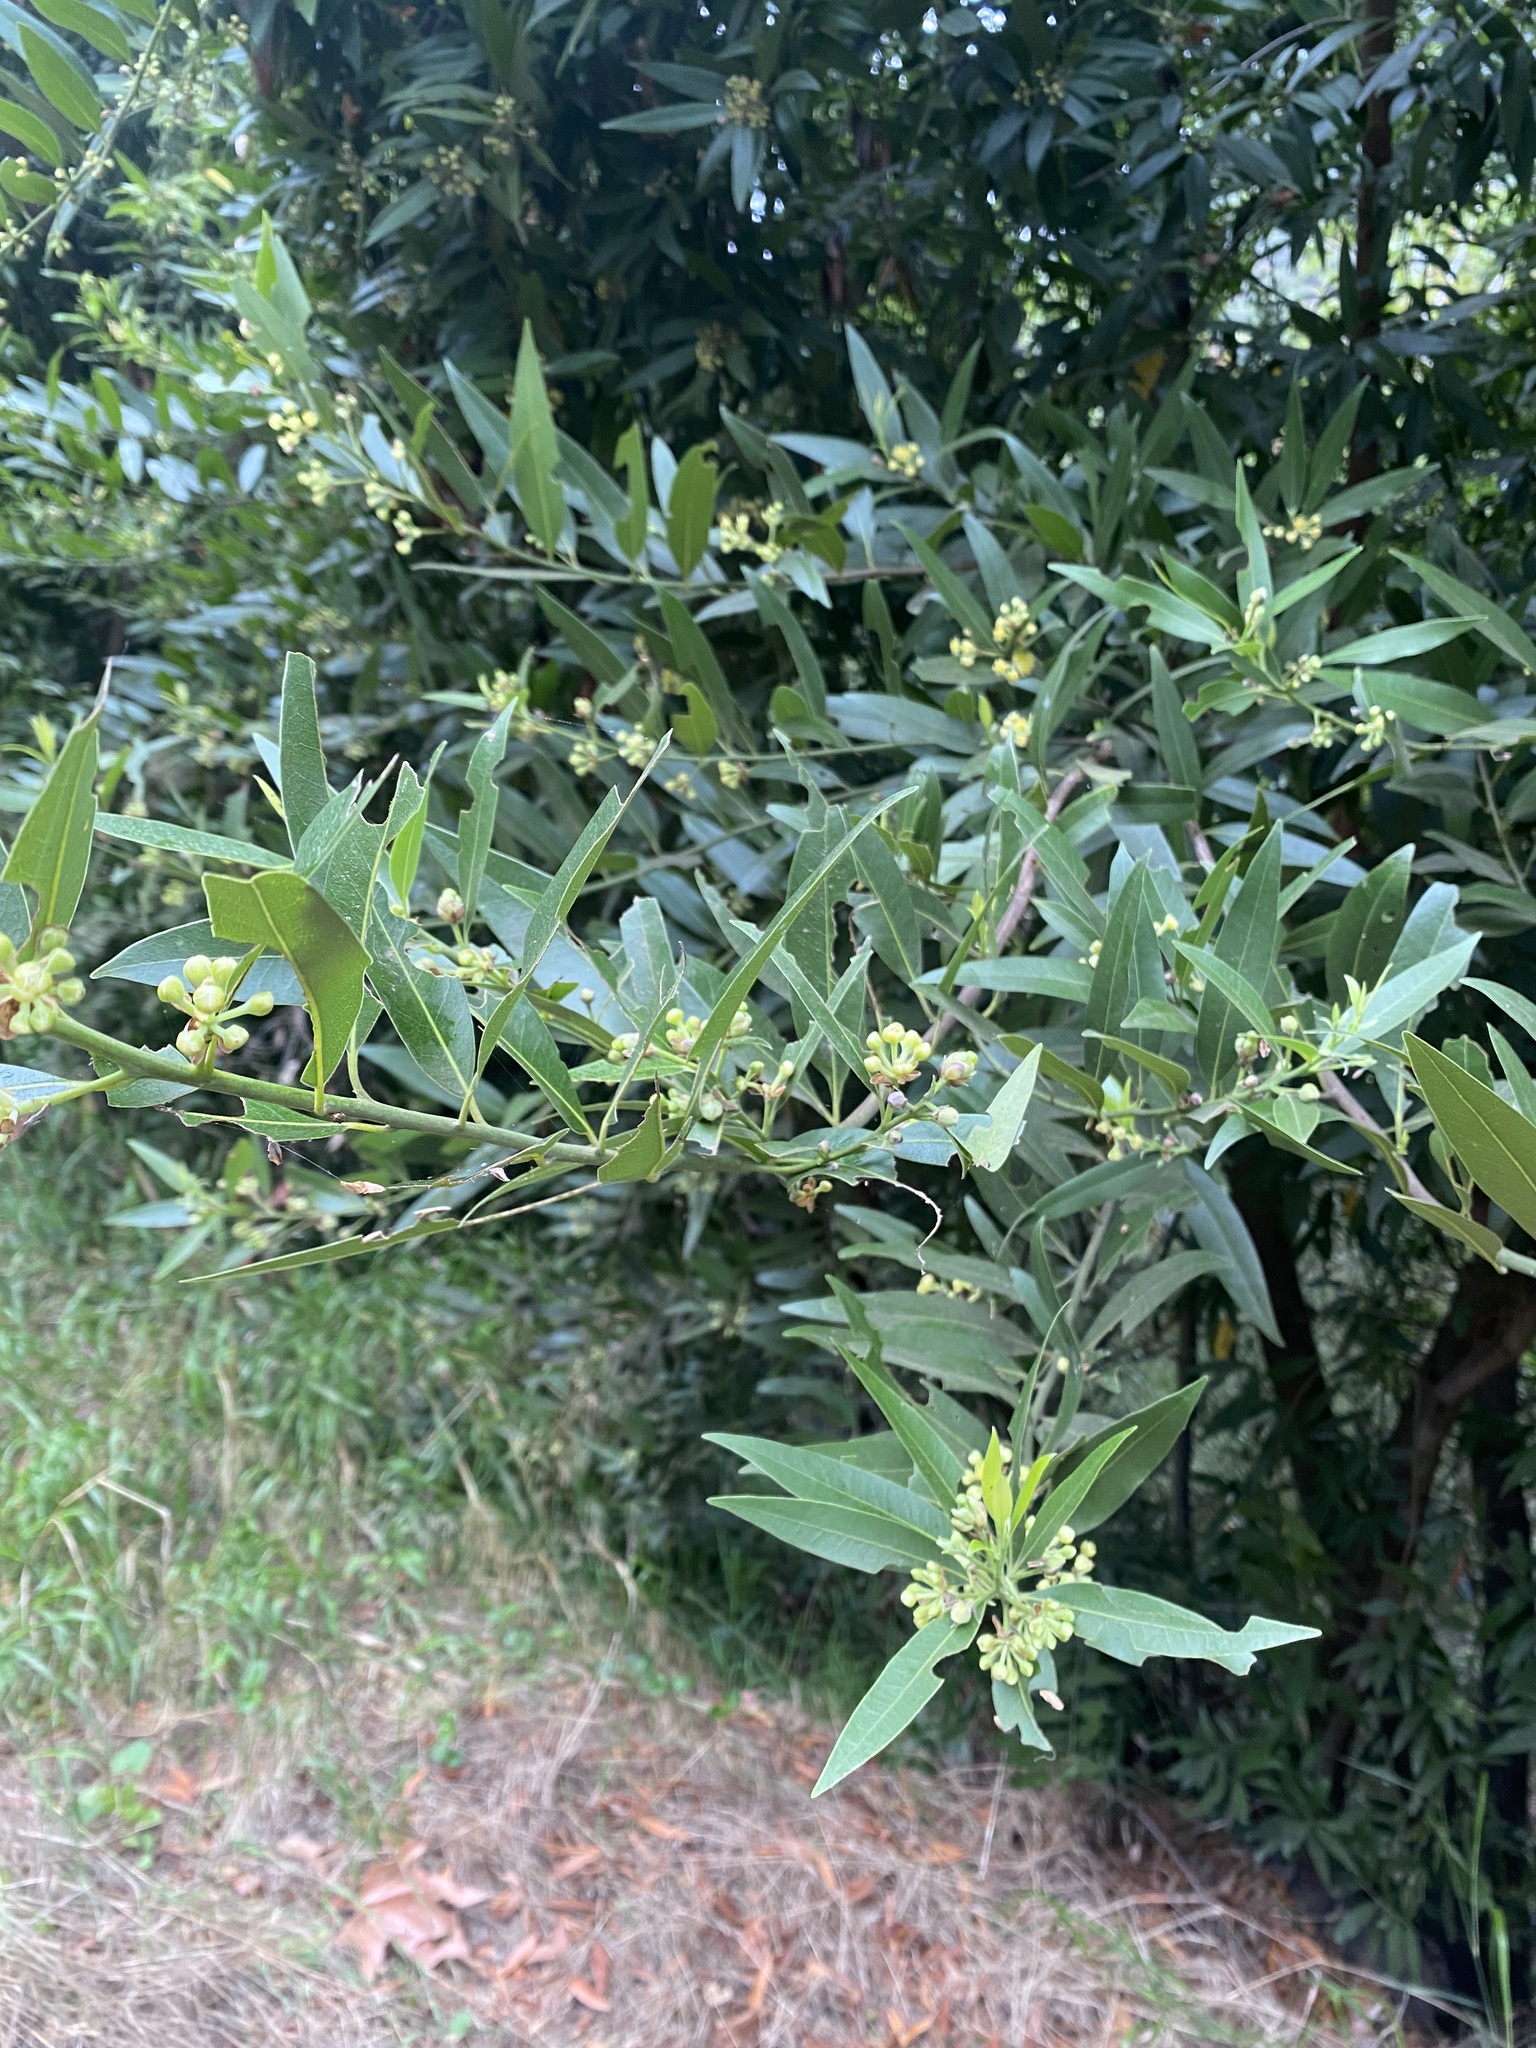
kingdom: Plantae
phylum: Tracheophyta
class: Magnoliopsida
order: Laurales
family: Lauraceae
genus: Umbellularia
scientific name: Umbellularia californica
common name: California bay
